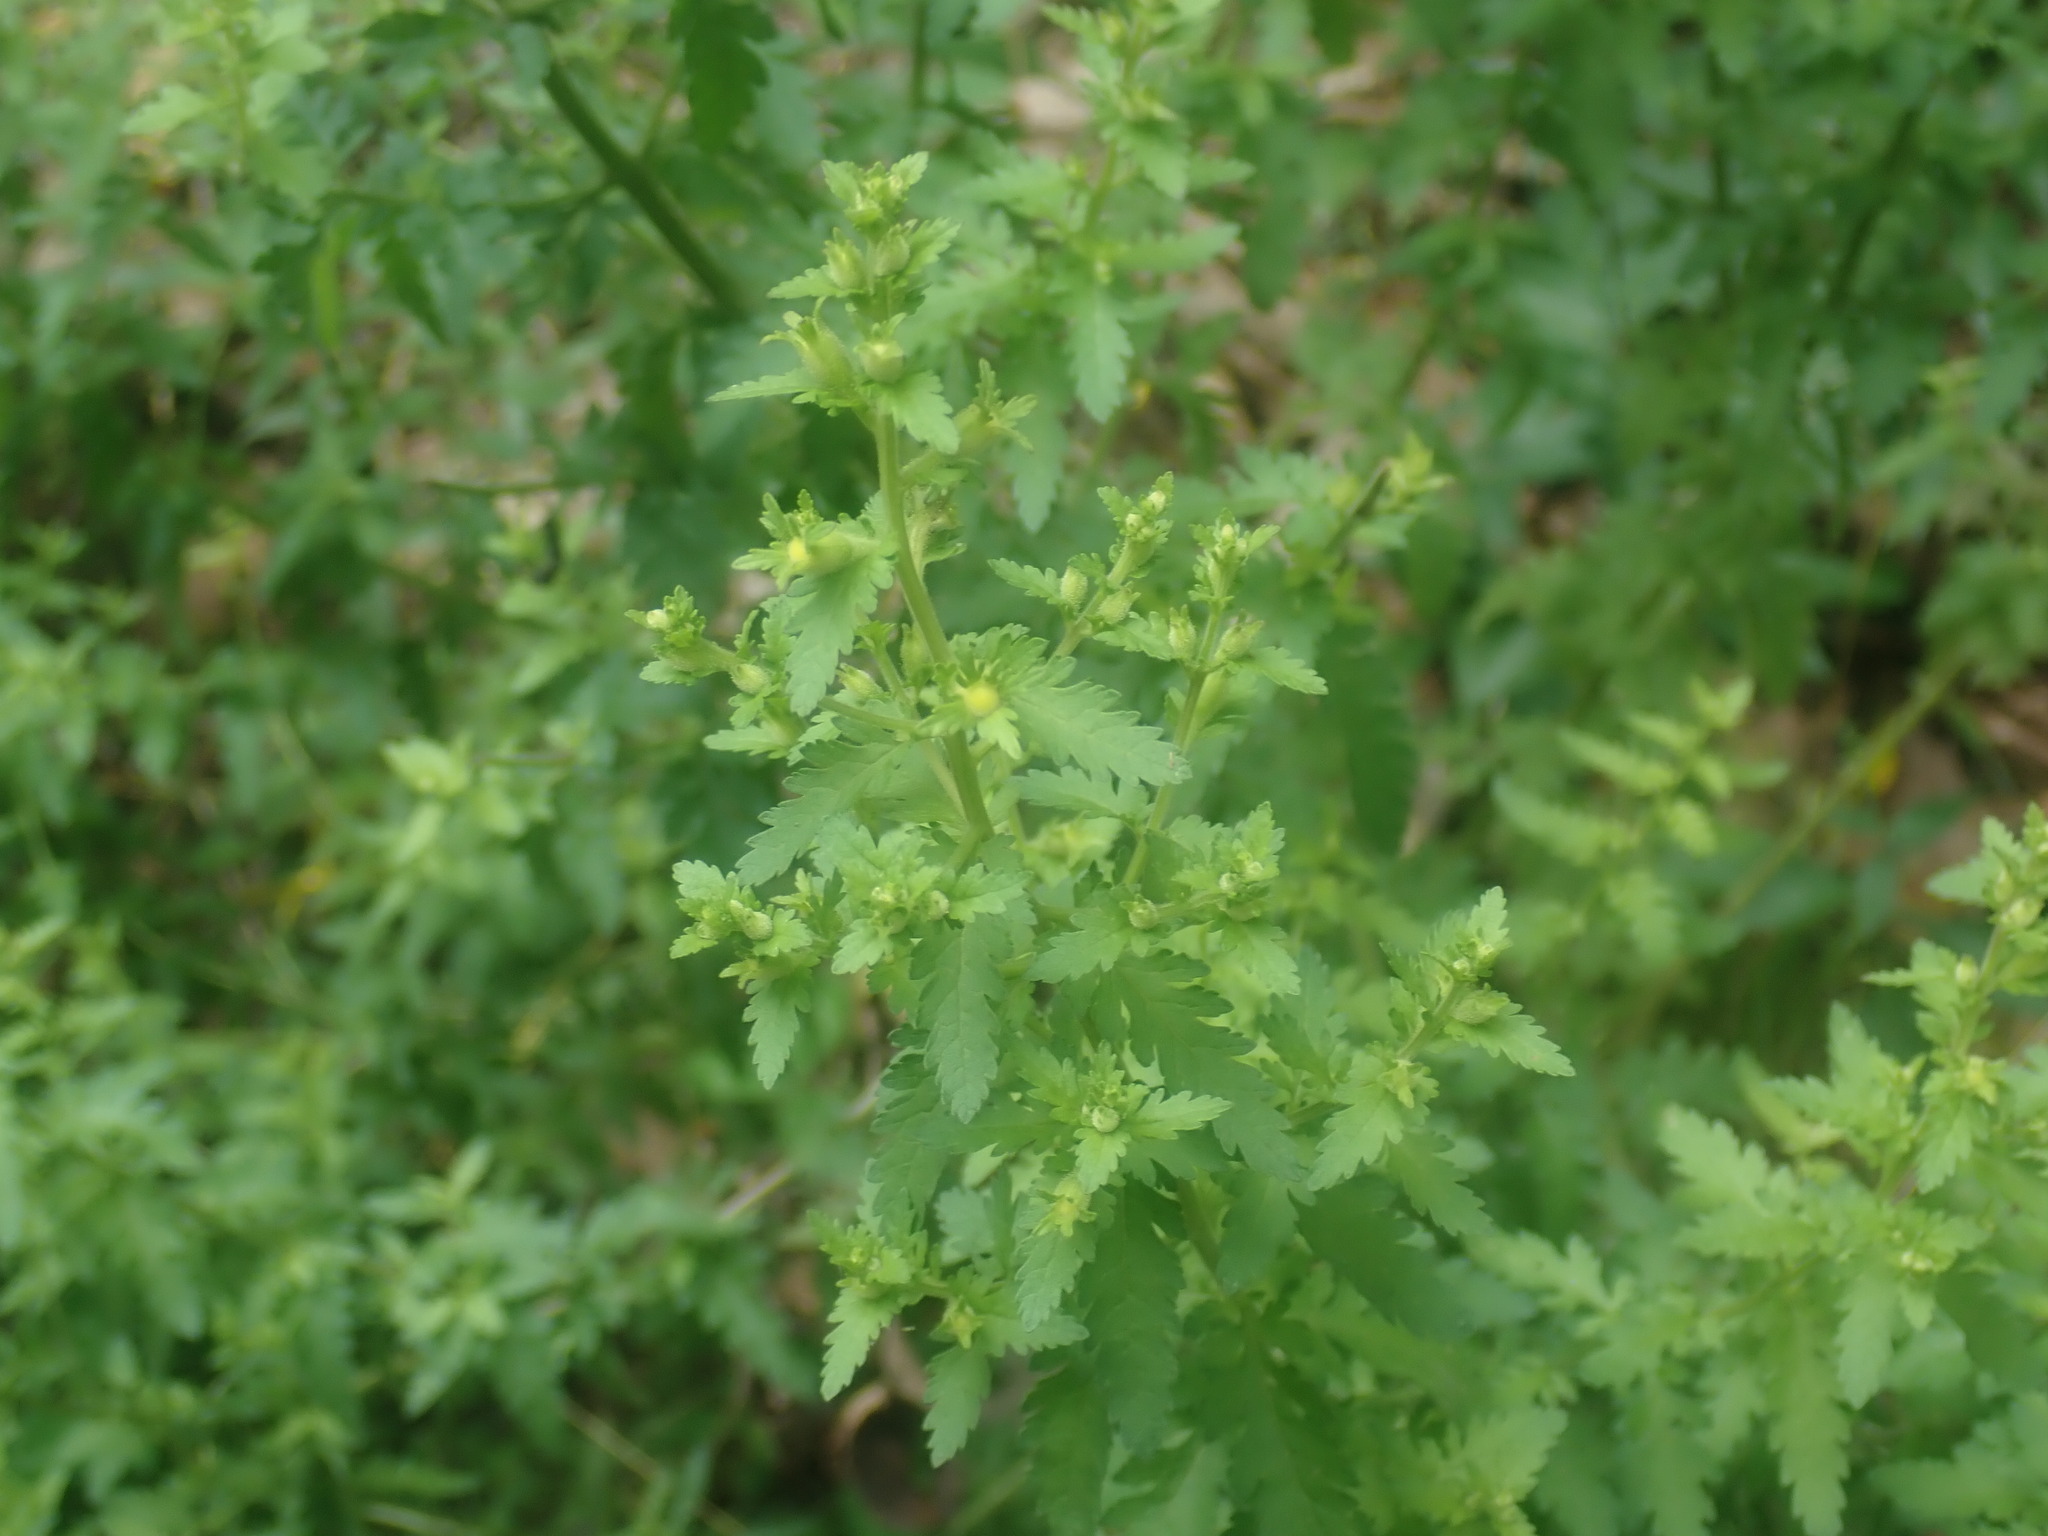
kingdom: Plantae
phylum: Tracheophyta
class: Magnoliopsida
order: Lamiales
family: Orobanchaceae
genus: Aureolaria
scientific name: Aureolaria pedicularia
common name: Annual false foxglove
